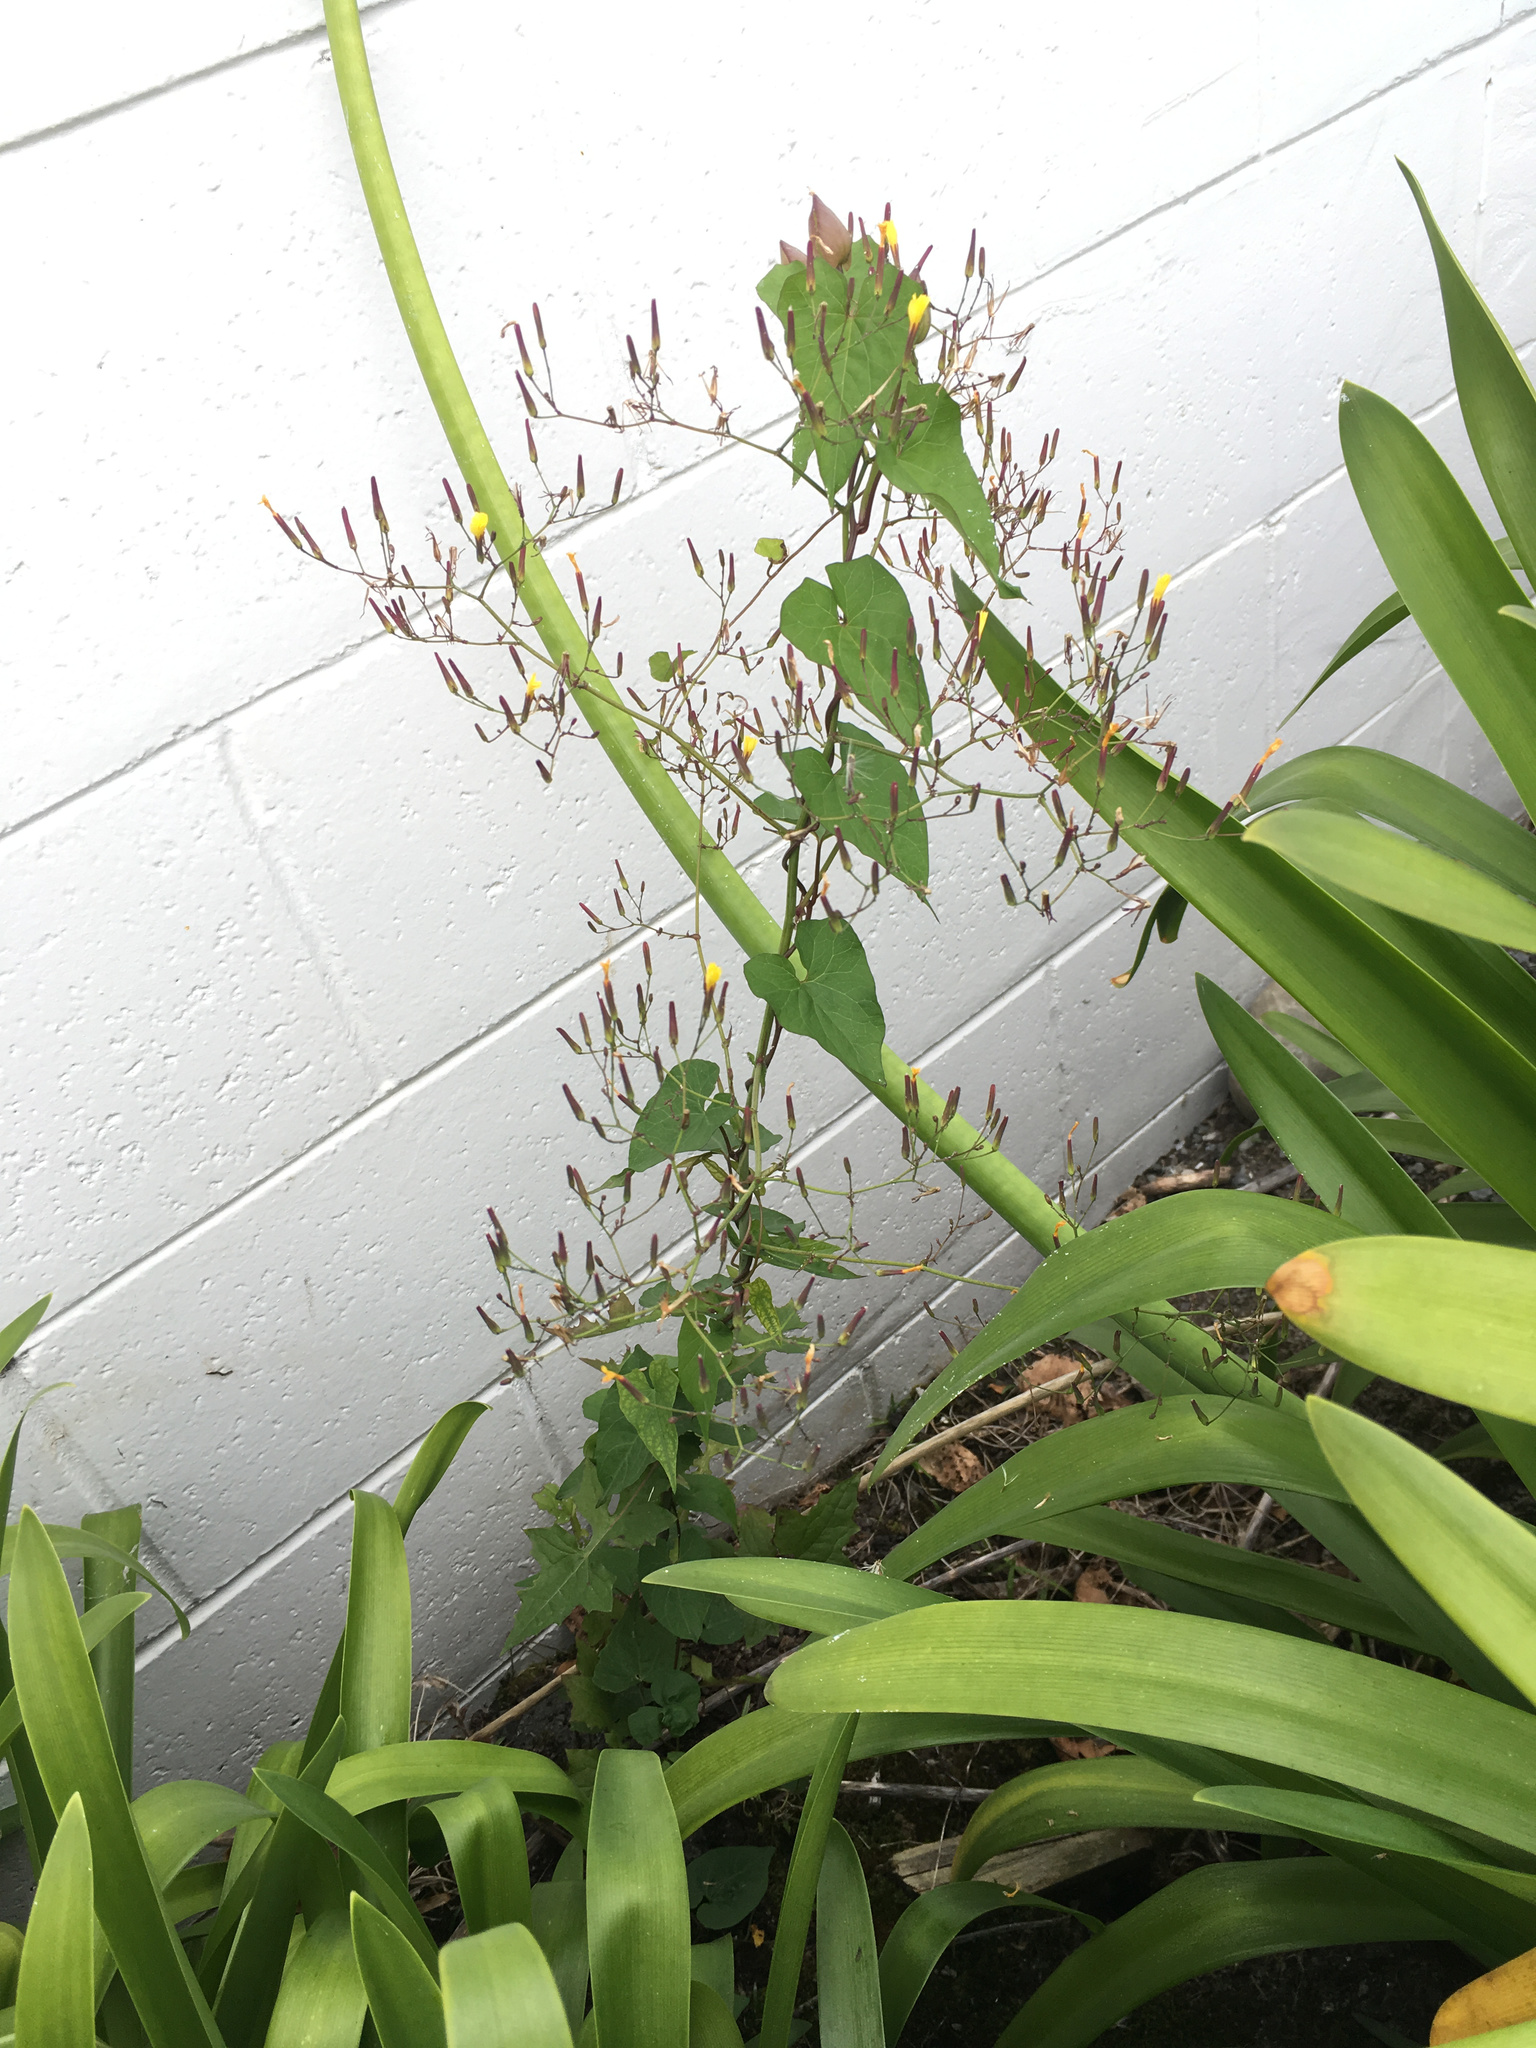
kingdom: Plantae
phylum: Tracheophyta
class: Magnoliopsida
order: Asterales
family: Asteraceae
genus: Mycelis
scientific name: Mycelis muralis
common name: Wall lettuce
